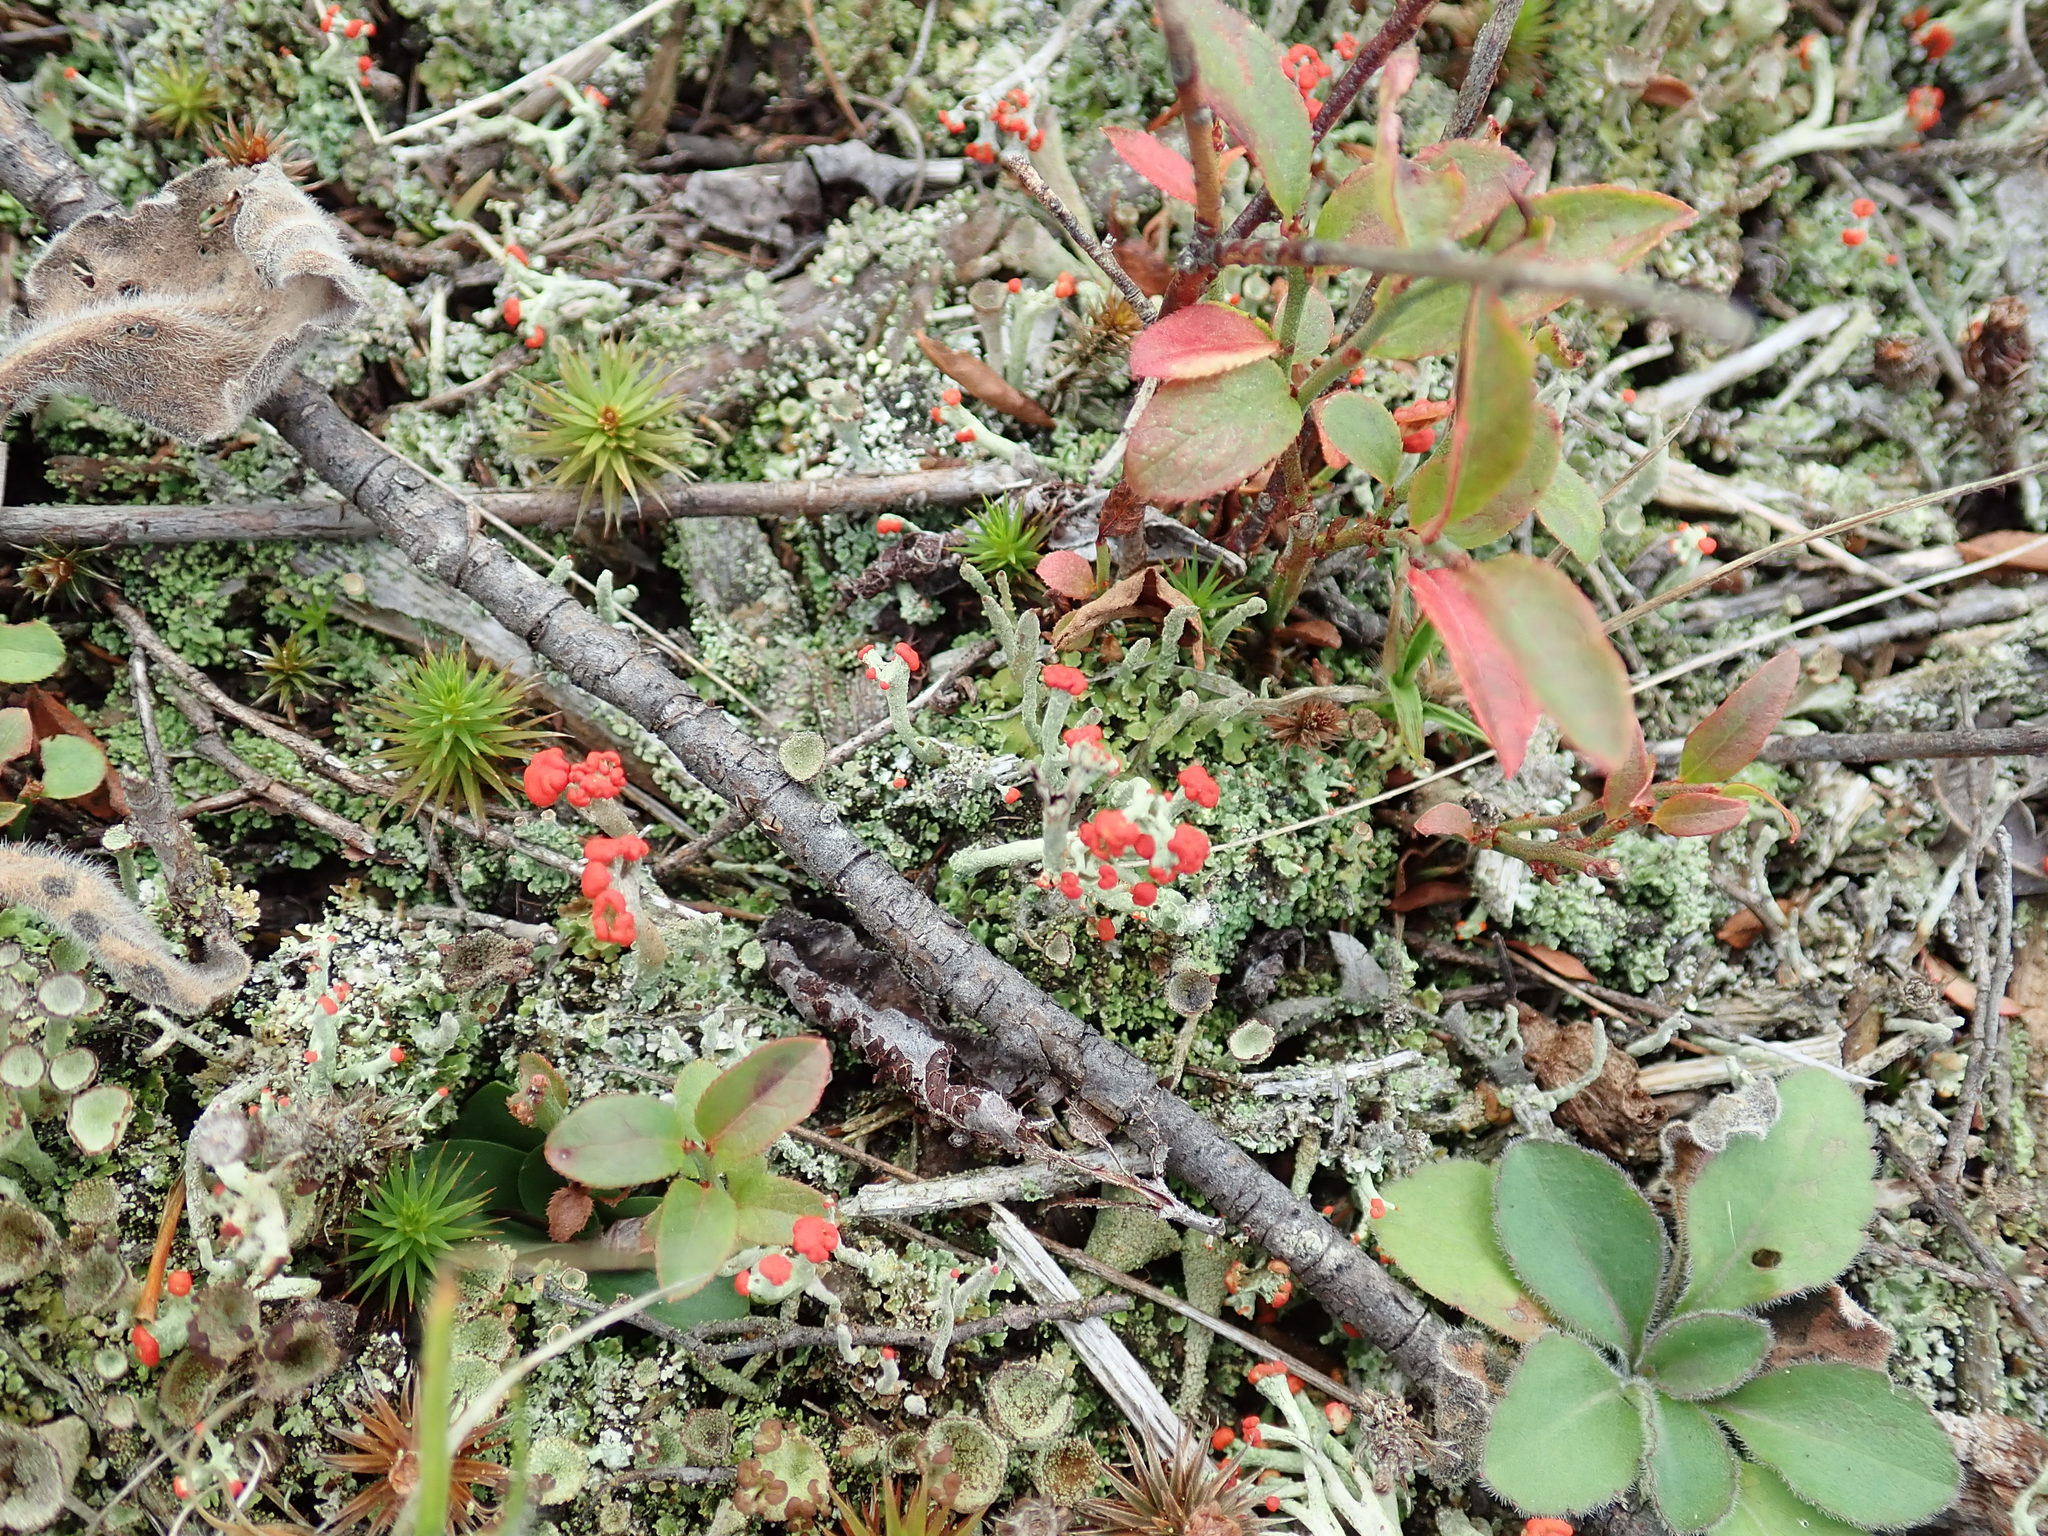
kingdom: Fungi
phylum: Ascomycota
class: Lecanoromycetes
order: Lecanorales
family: Cladoniaceae
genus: Cladonia
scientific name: Cladonia cristatella
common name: British soldier lichen
